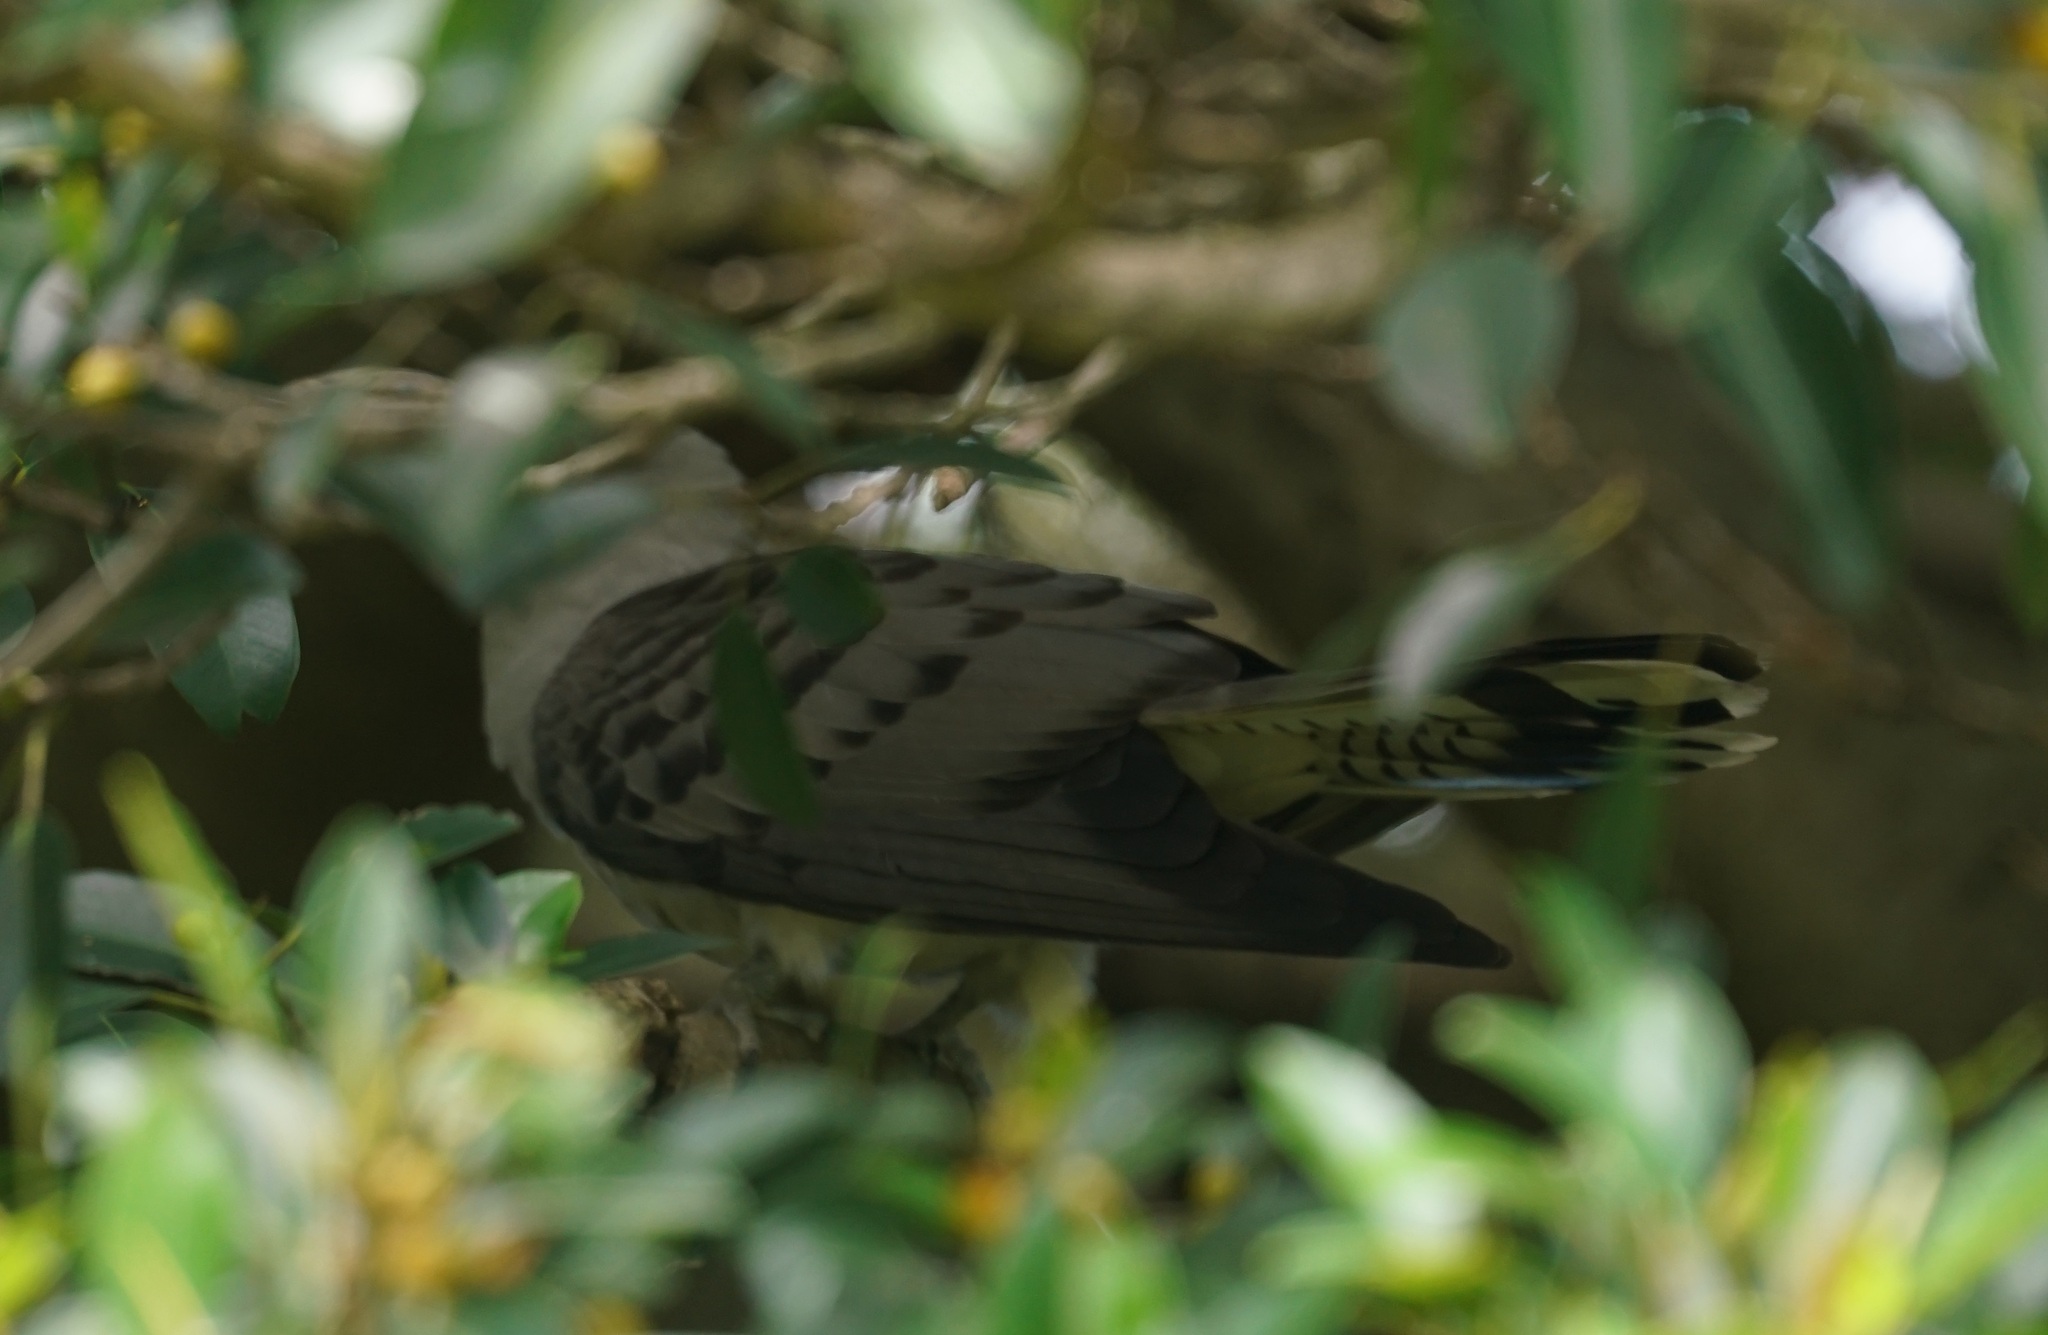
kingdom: Animalia
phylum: Chordata
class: Aves
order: Cuculiformes
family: Cuculidae
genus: Scythrops
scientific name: Scythrops novaehollandiae
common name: Channel-billed cuckoo
